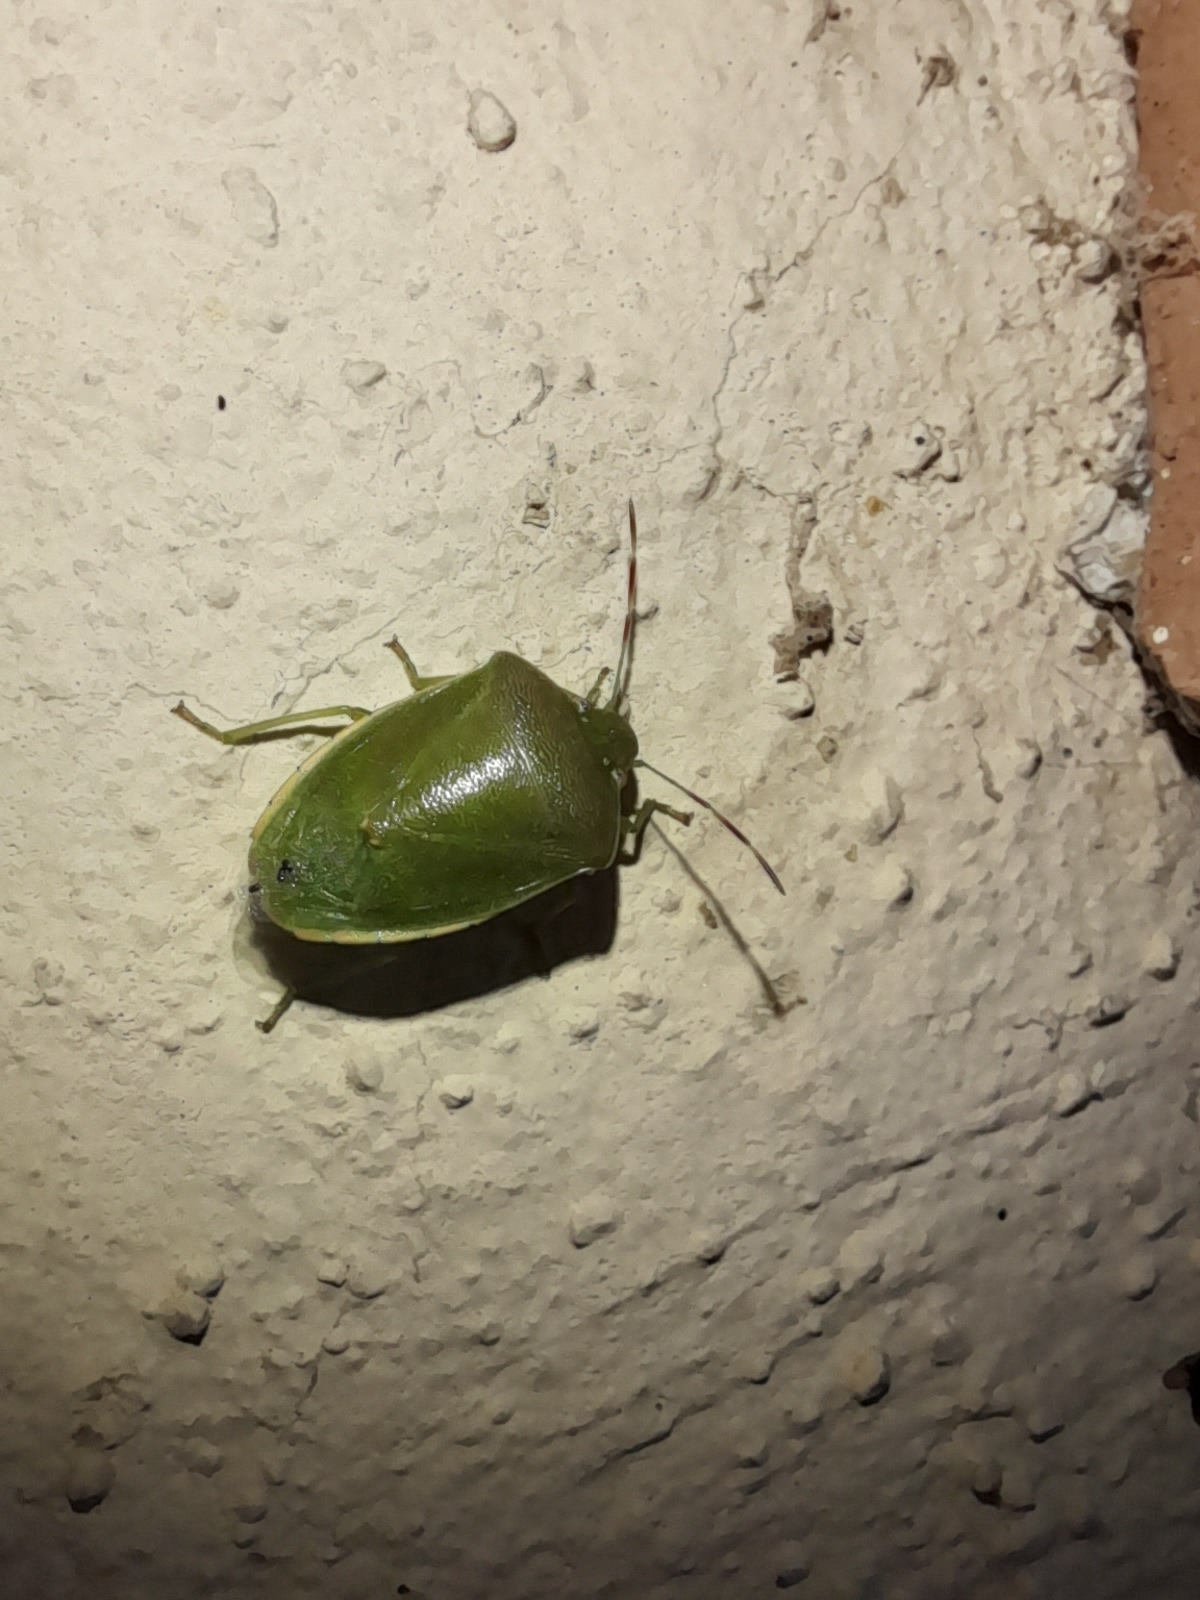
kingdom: Animalia
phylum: Arthropoda
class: Insecta
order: Hemiptera
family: Pentatomidae
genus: Acrosternum
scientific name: Acrosternum heegeri
